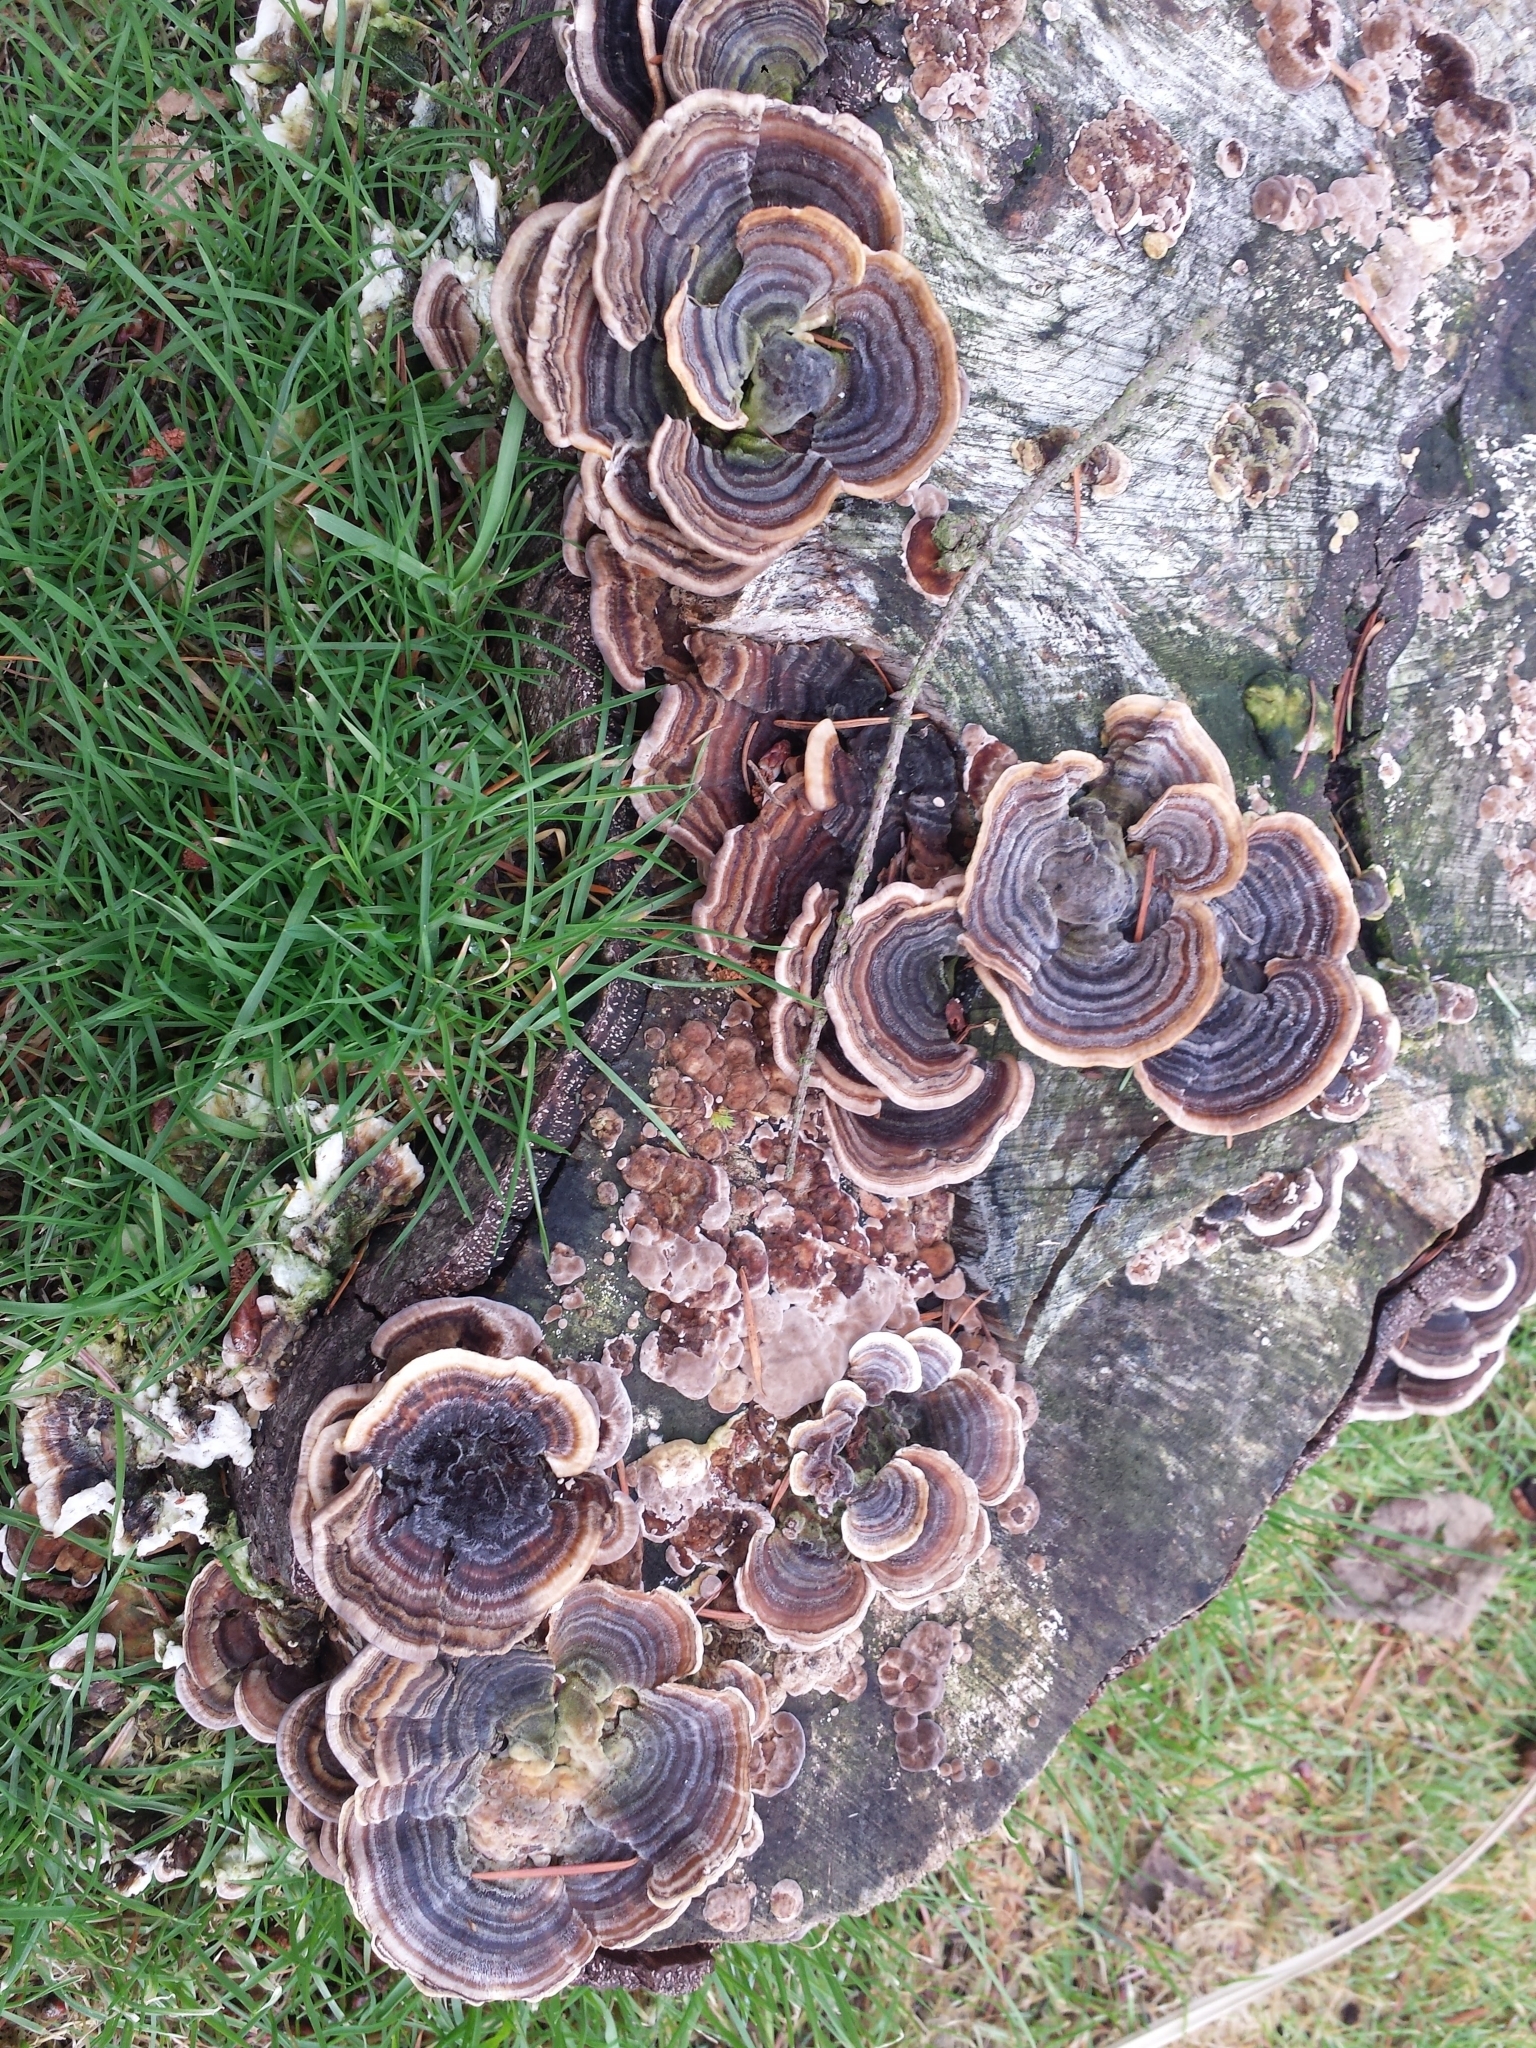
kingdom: Fungi
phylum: Basidiomycota
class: Agaricomycetes
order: Polyporales
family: Polyporaceae
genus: Trametes
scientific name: Trametes versicolor
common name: Turkeytail
